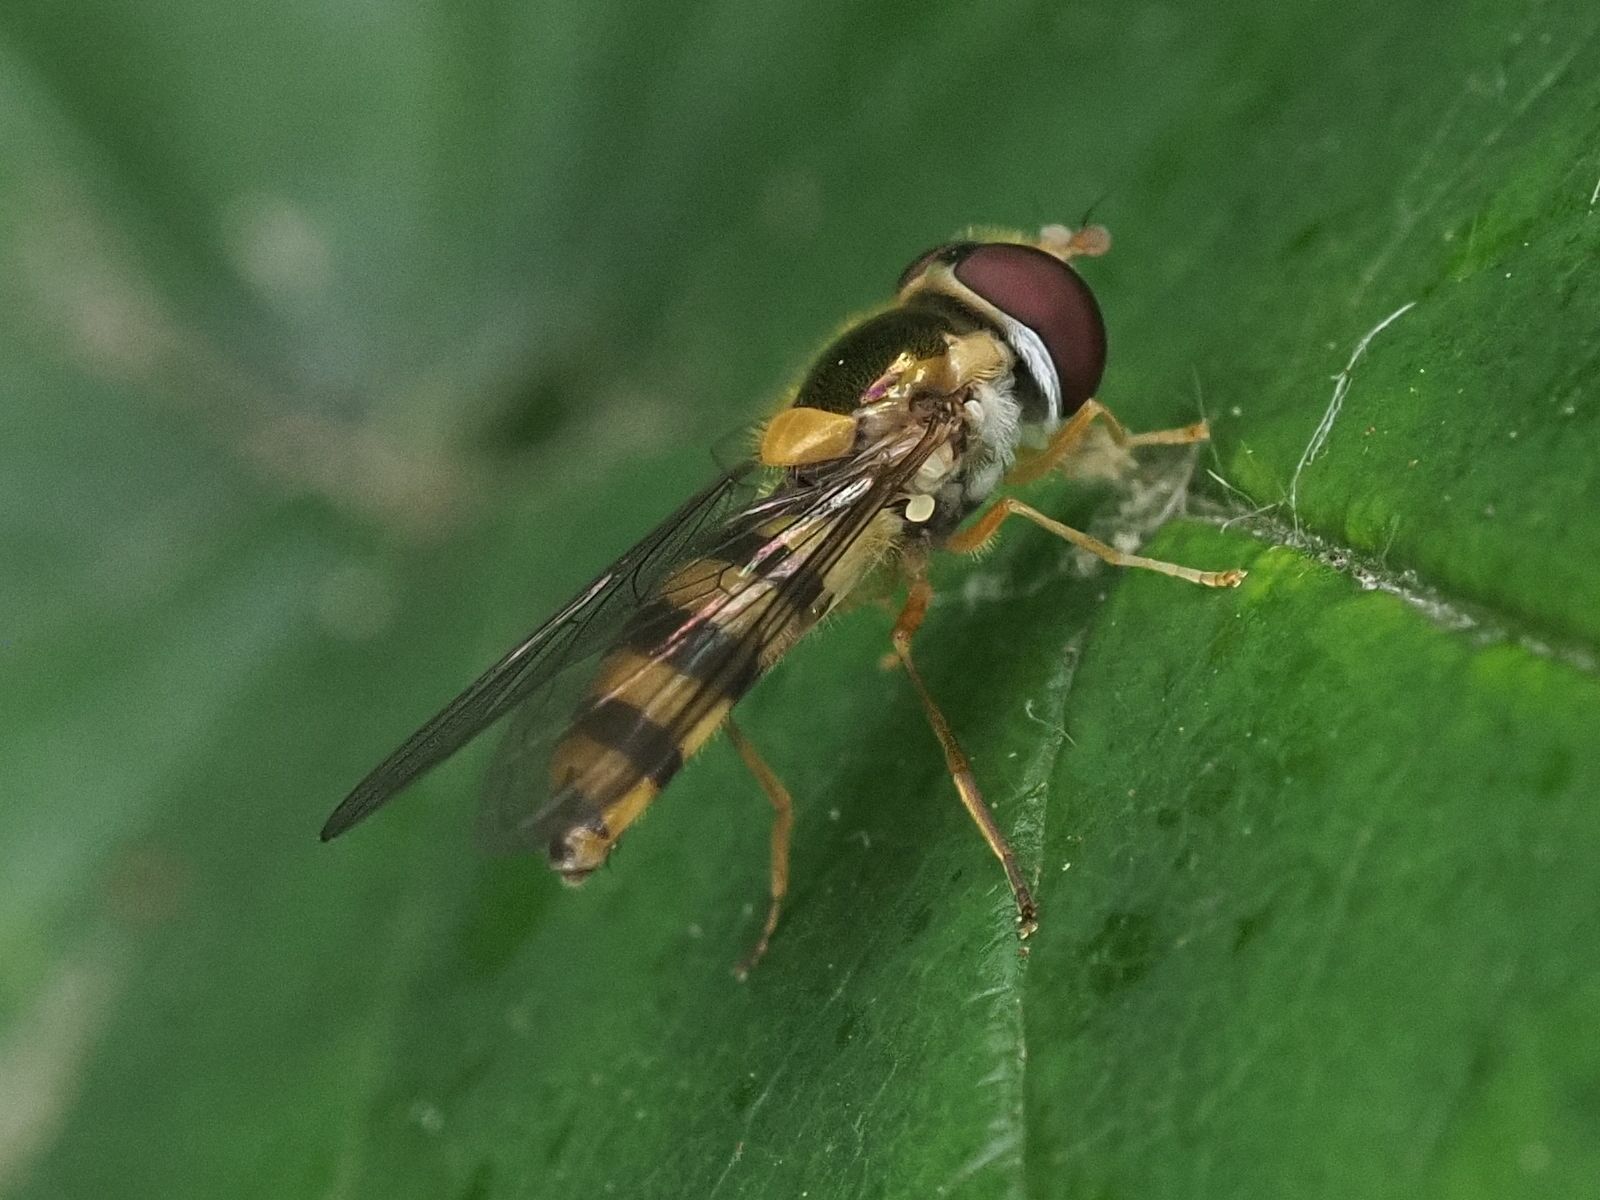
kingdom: Animalia
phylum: Arthropoda
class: Insecta
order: Diptera
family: Syrphidae
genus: Fagisyrphus
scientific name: Fagisyrphus cincta
